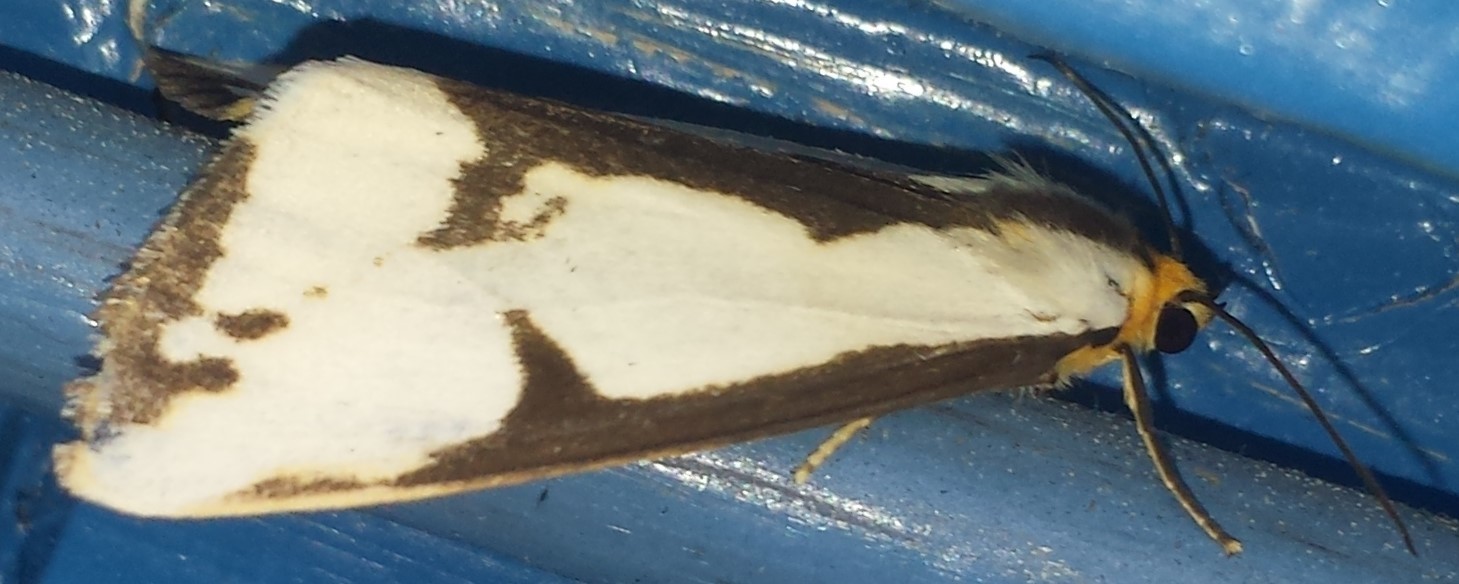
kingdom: Animalia
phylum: Arthropoda
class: Insecta
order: Lepidoptera
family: Erebidae
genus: Haploa
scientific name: Haploa lecontei
